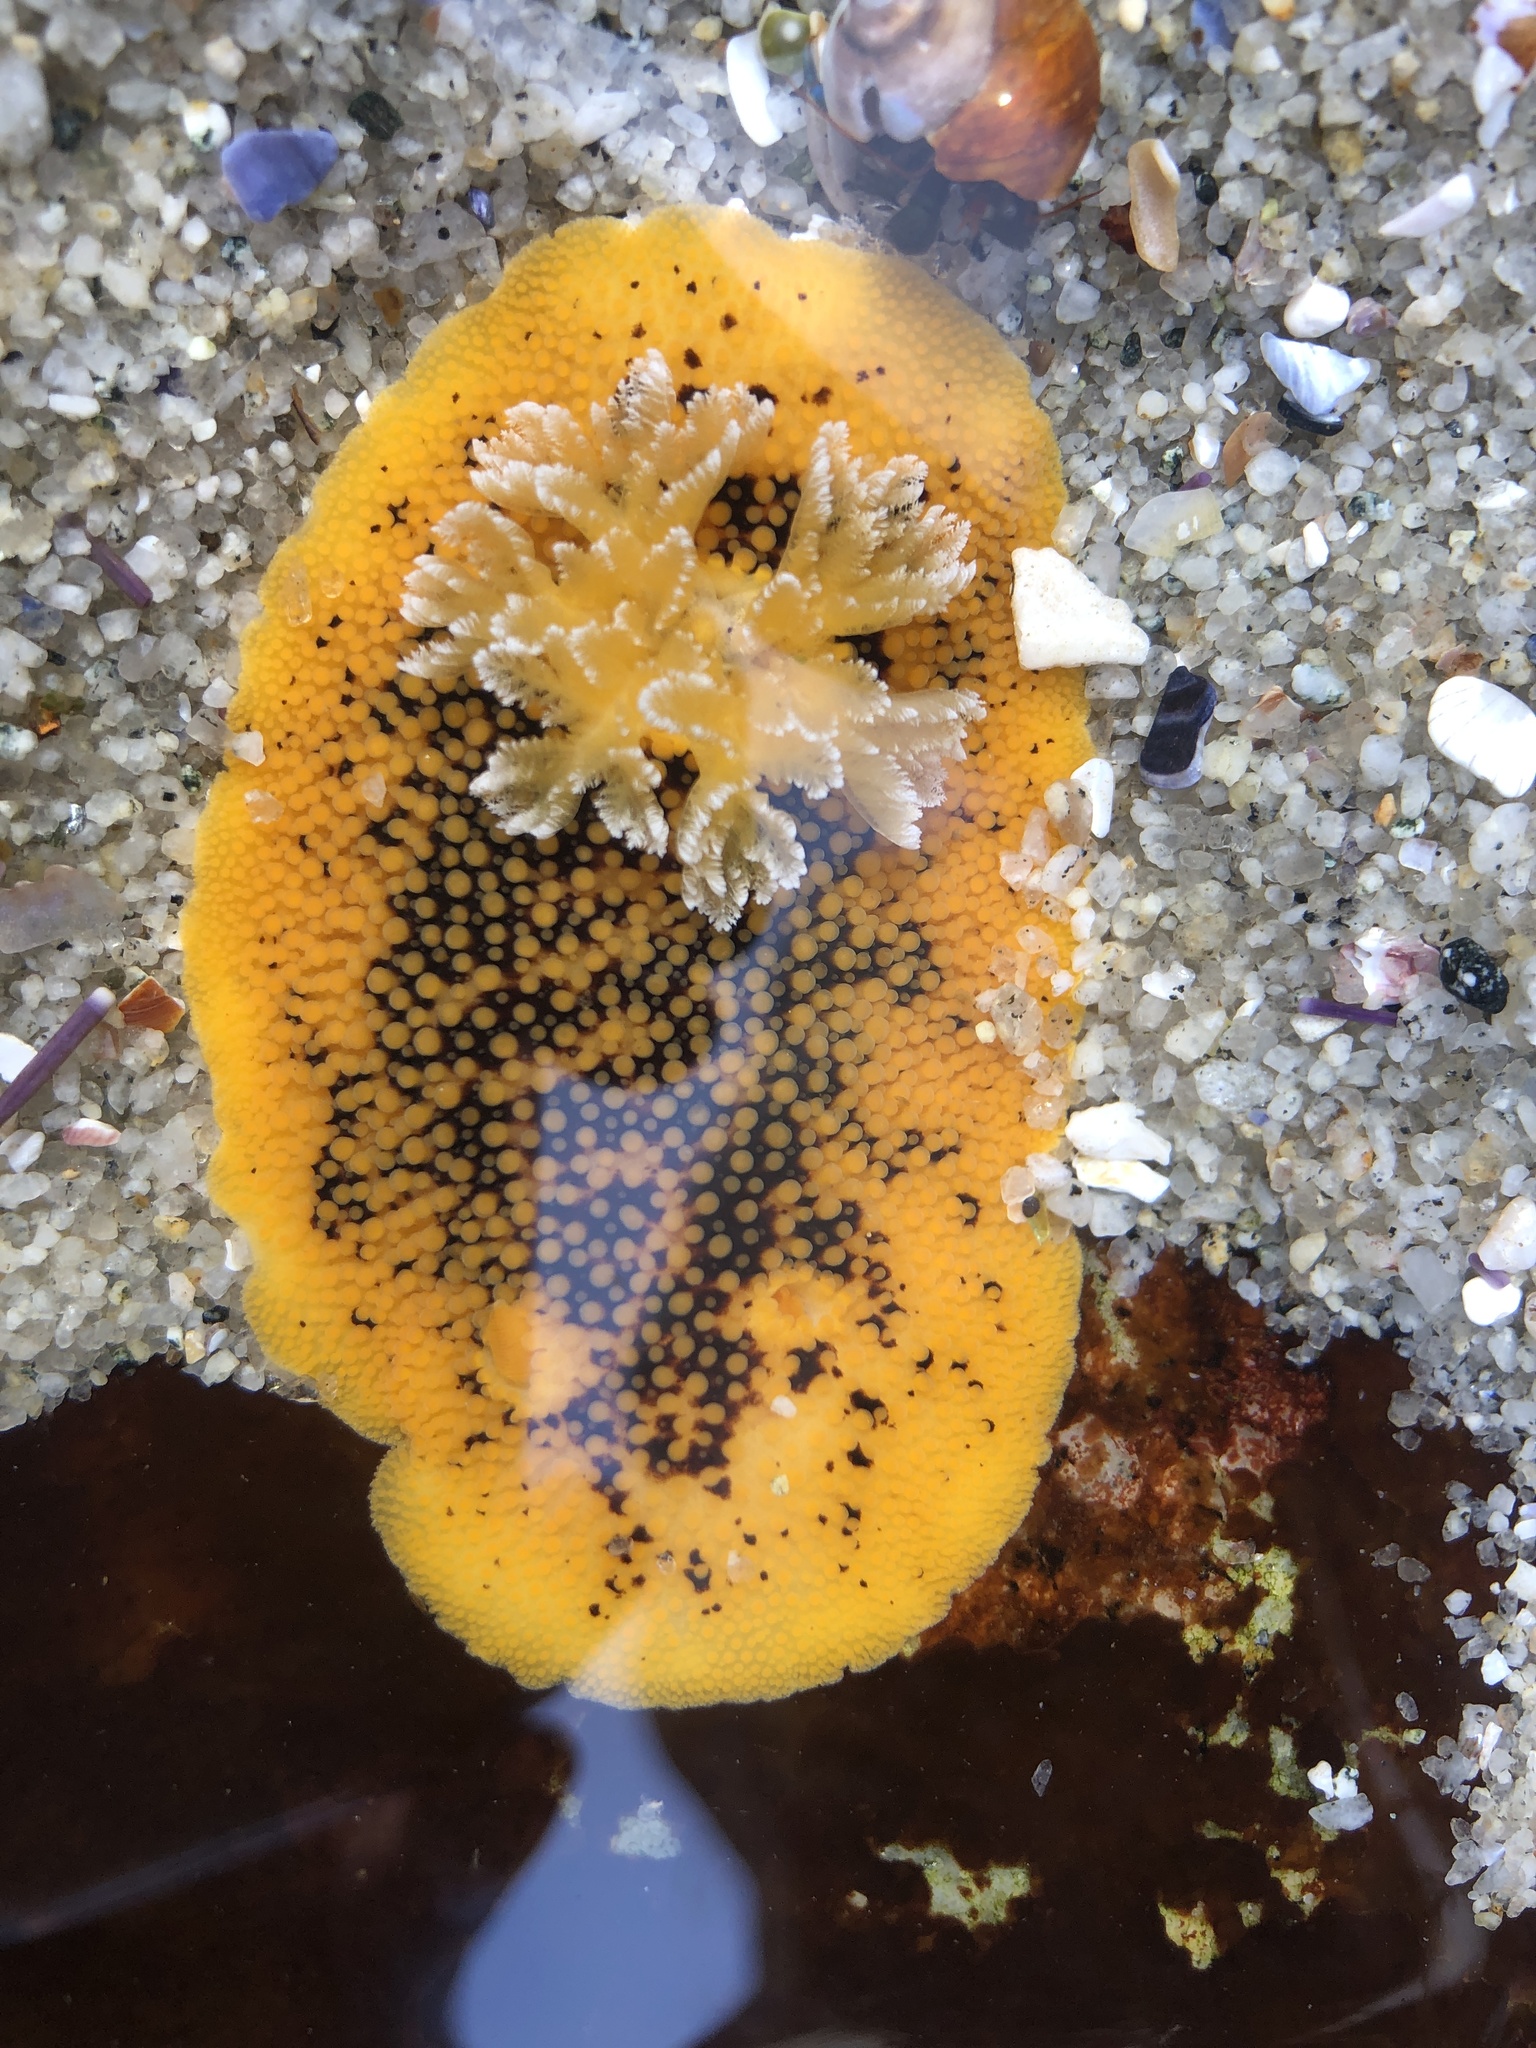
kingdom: Animalia
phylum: Mollusca
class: Gastropoda
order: Nudibranchia
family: Discodorididae
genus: Peltodoris
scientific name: Peltodoris nobilis
